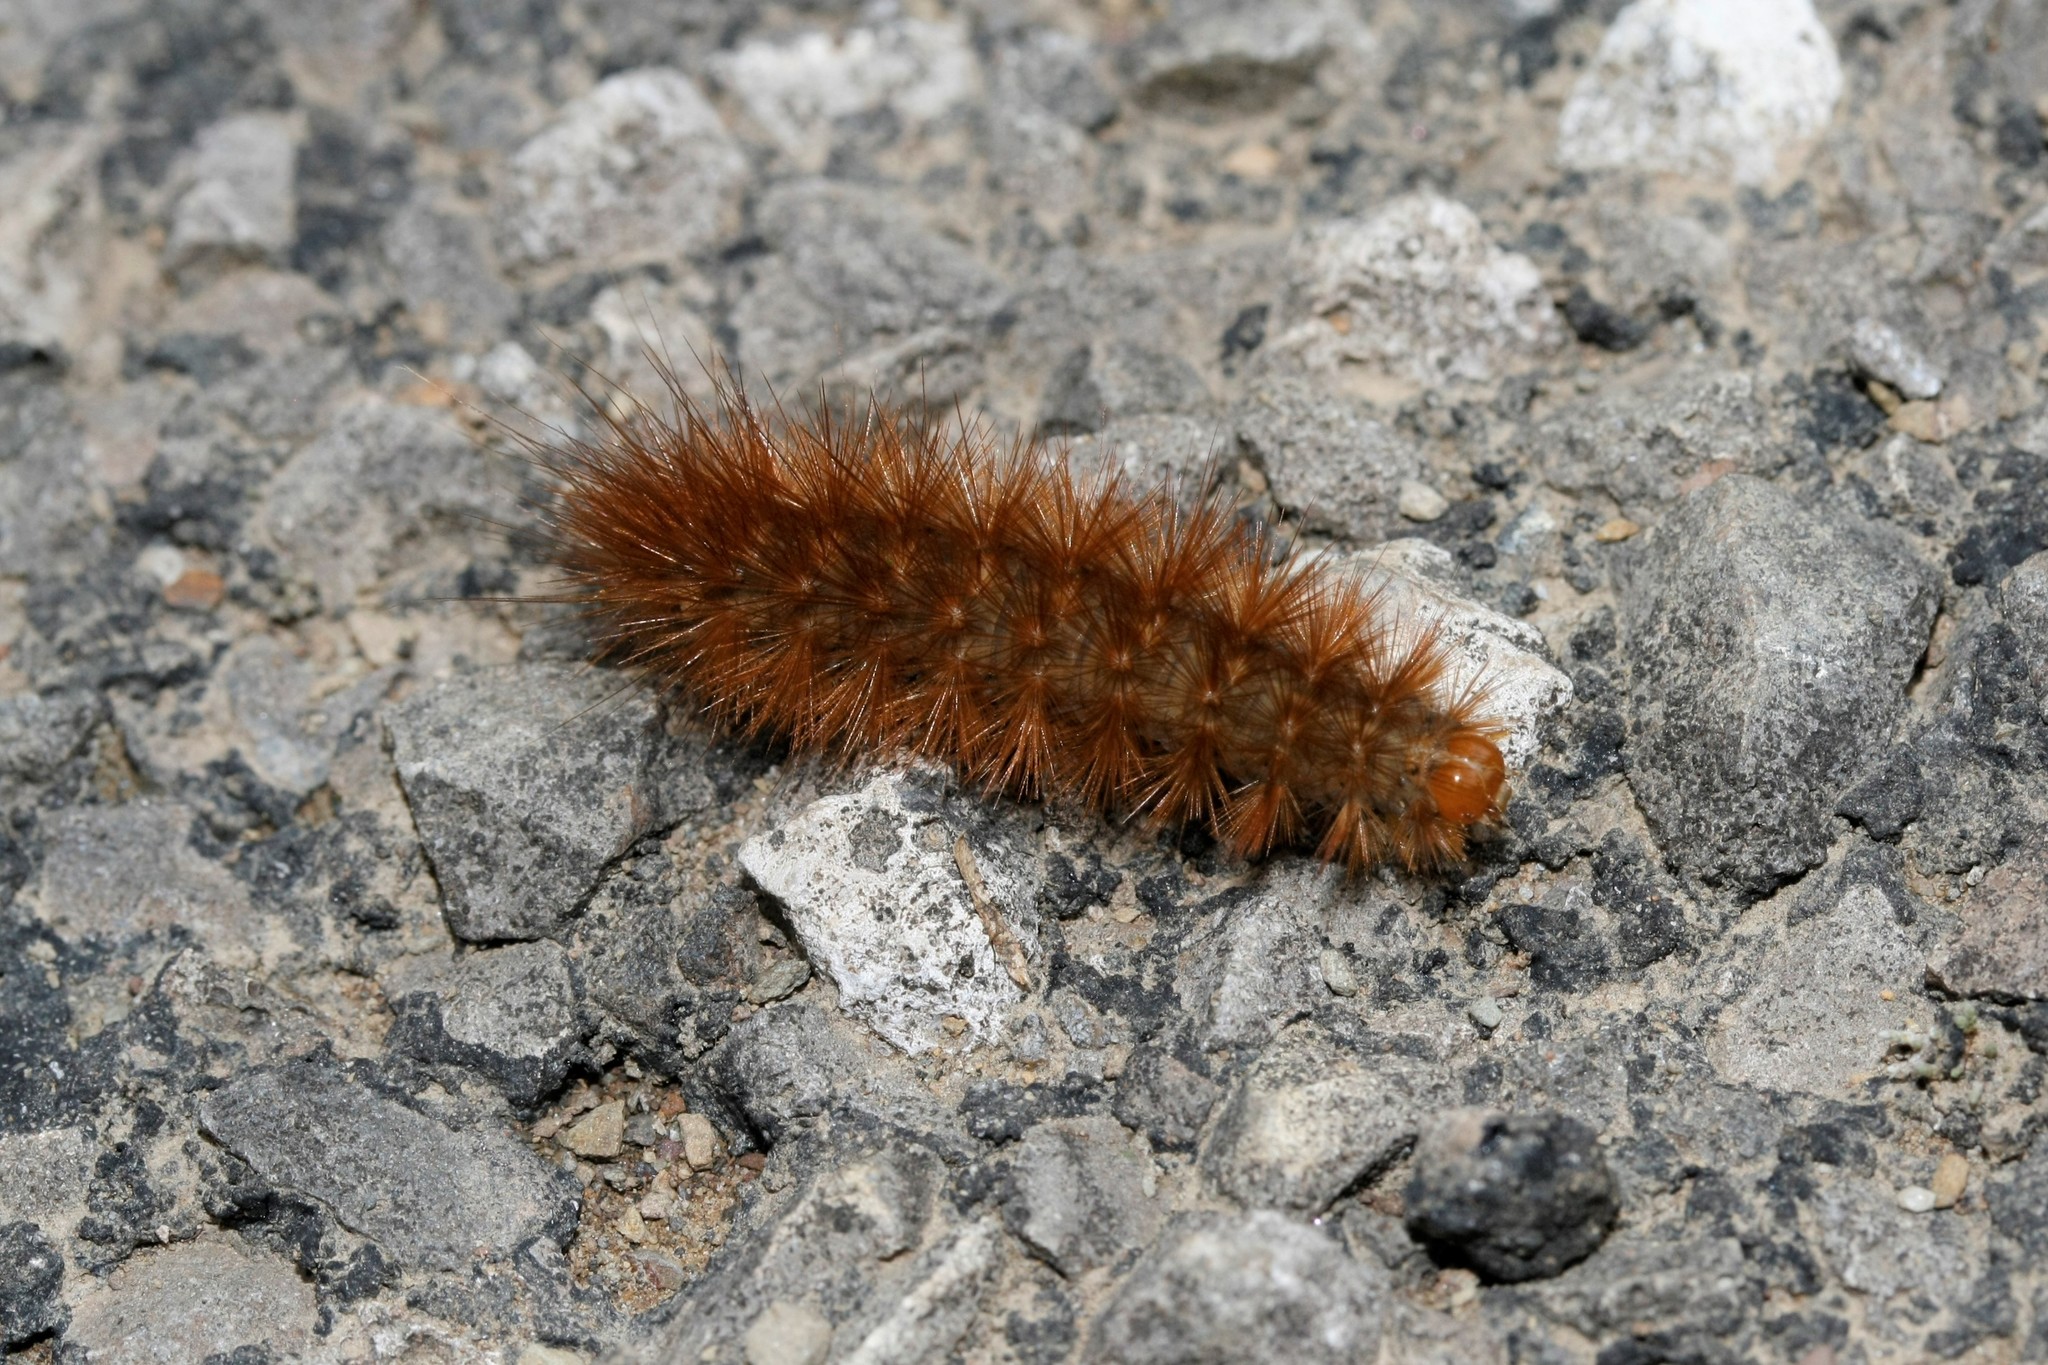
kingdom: Animalia
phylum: Arthropoda
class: Insecta
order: Lepidoptera
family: Erebidae
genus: Phragmatobia
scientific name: Phragmatobia fuliginosa
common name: Ruby tiger
